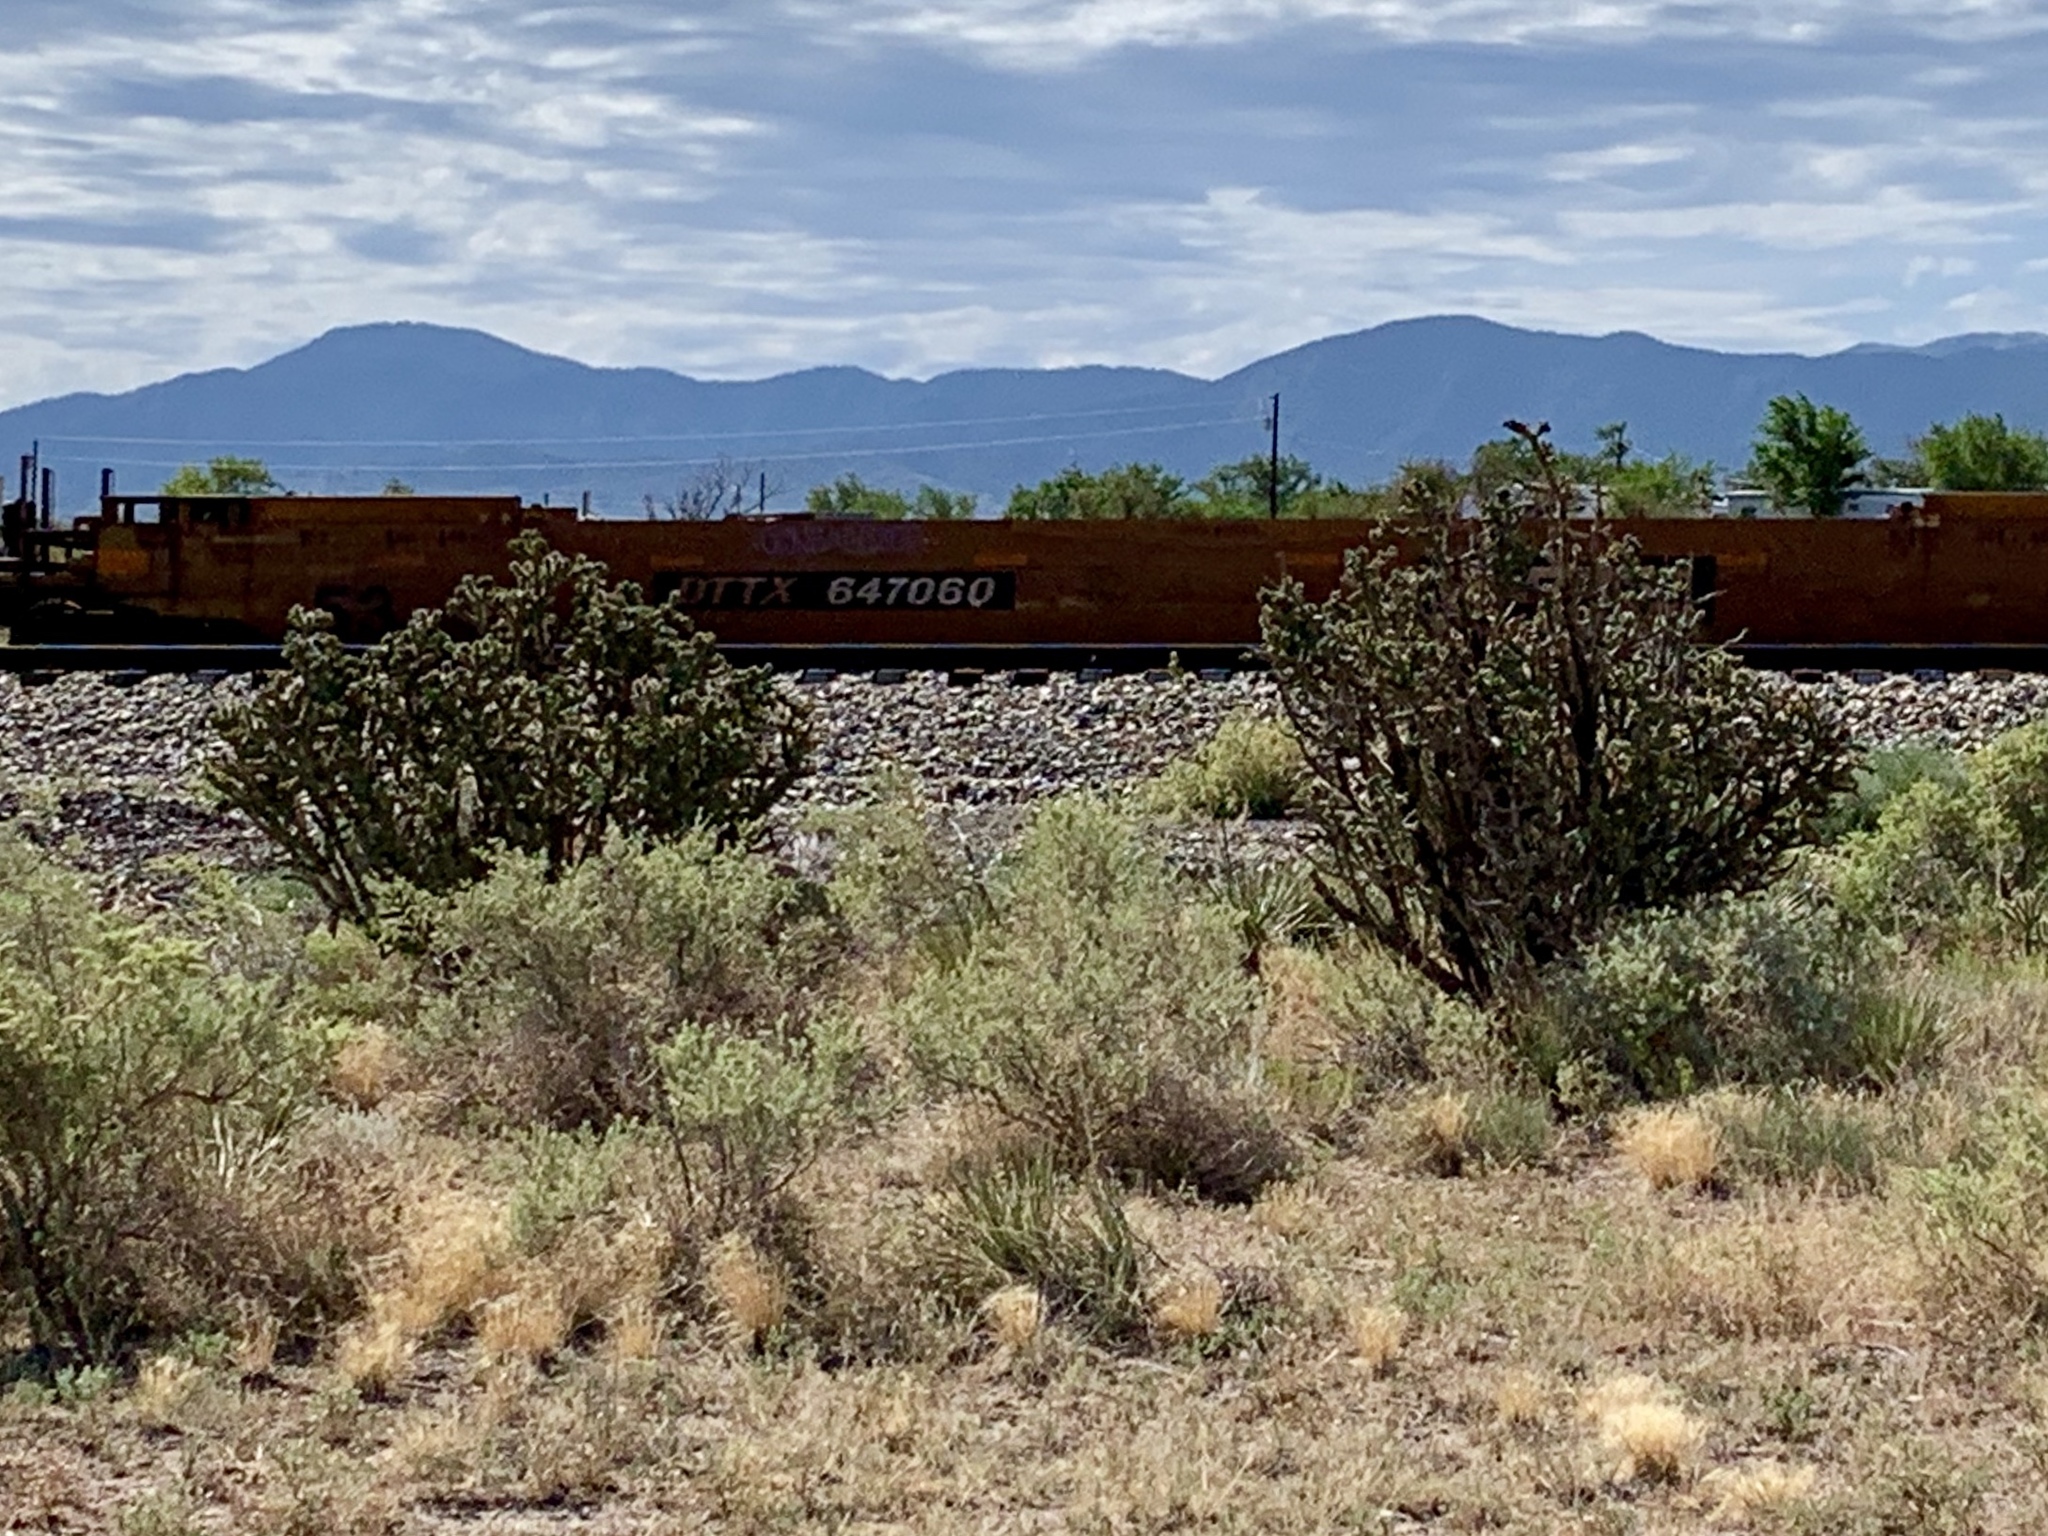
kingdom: Plantae
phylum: Tracheophyta
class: Magnoliopsida
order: Caryophyllales
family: Cactaceae
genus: Cylindropuntia
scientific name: Cylindropuntia imbricata
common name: Candelabrum cactus
